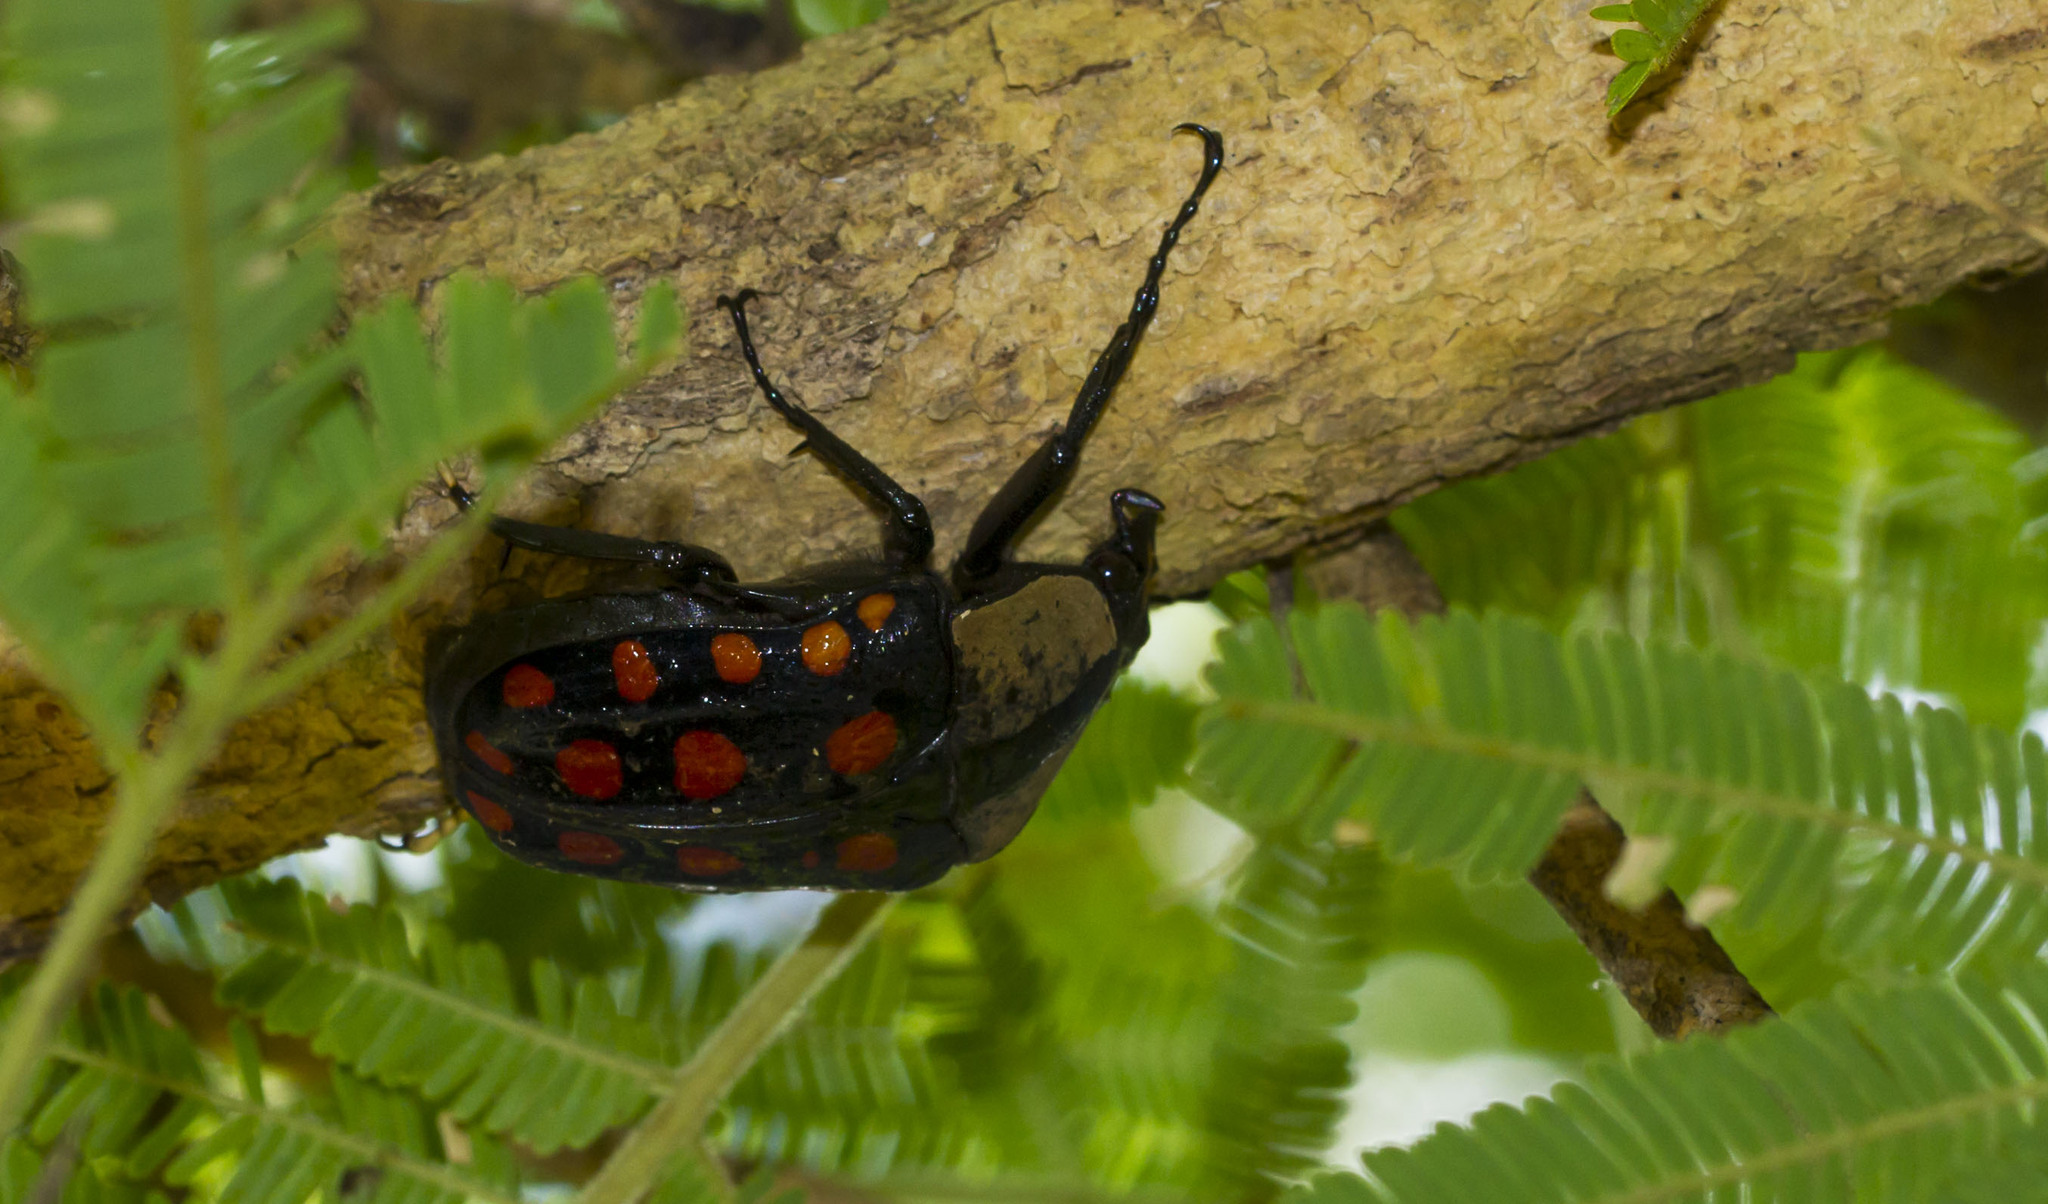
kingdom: Animalia
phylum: Arthropoda
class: Insecta
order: Coleoptera
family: Scarabaeidae
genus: Mecynorhina
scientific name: Mecynorhina passerinii
